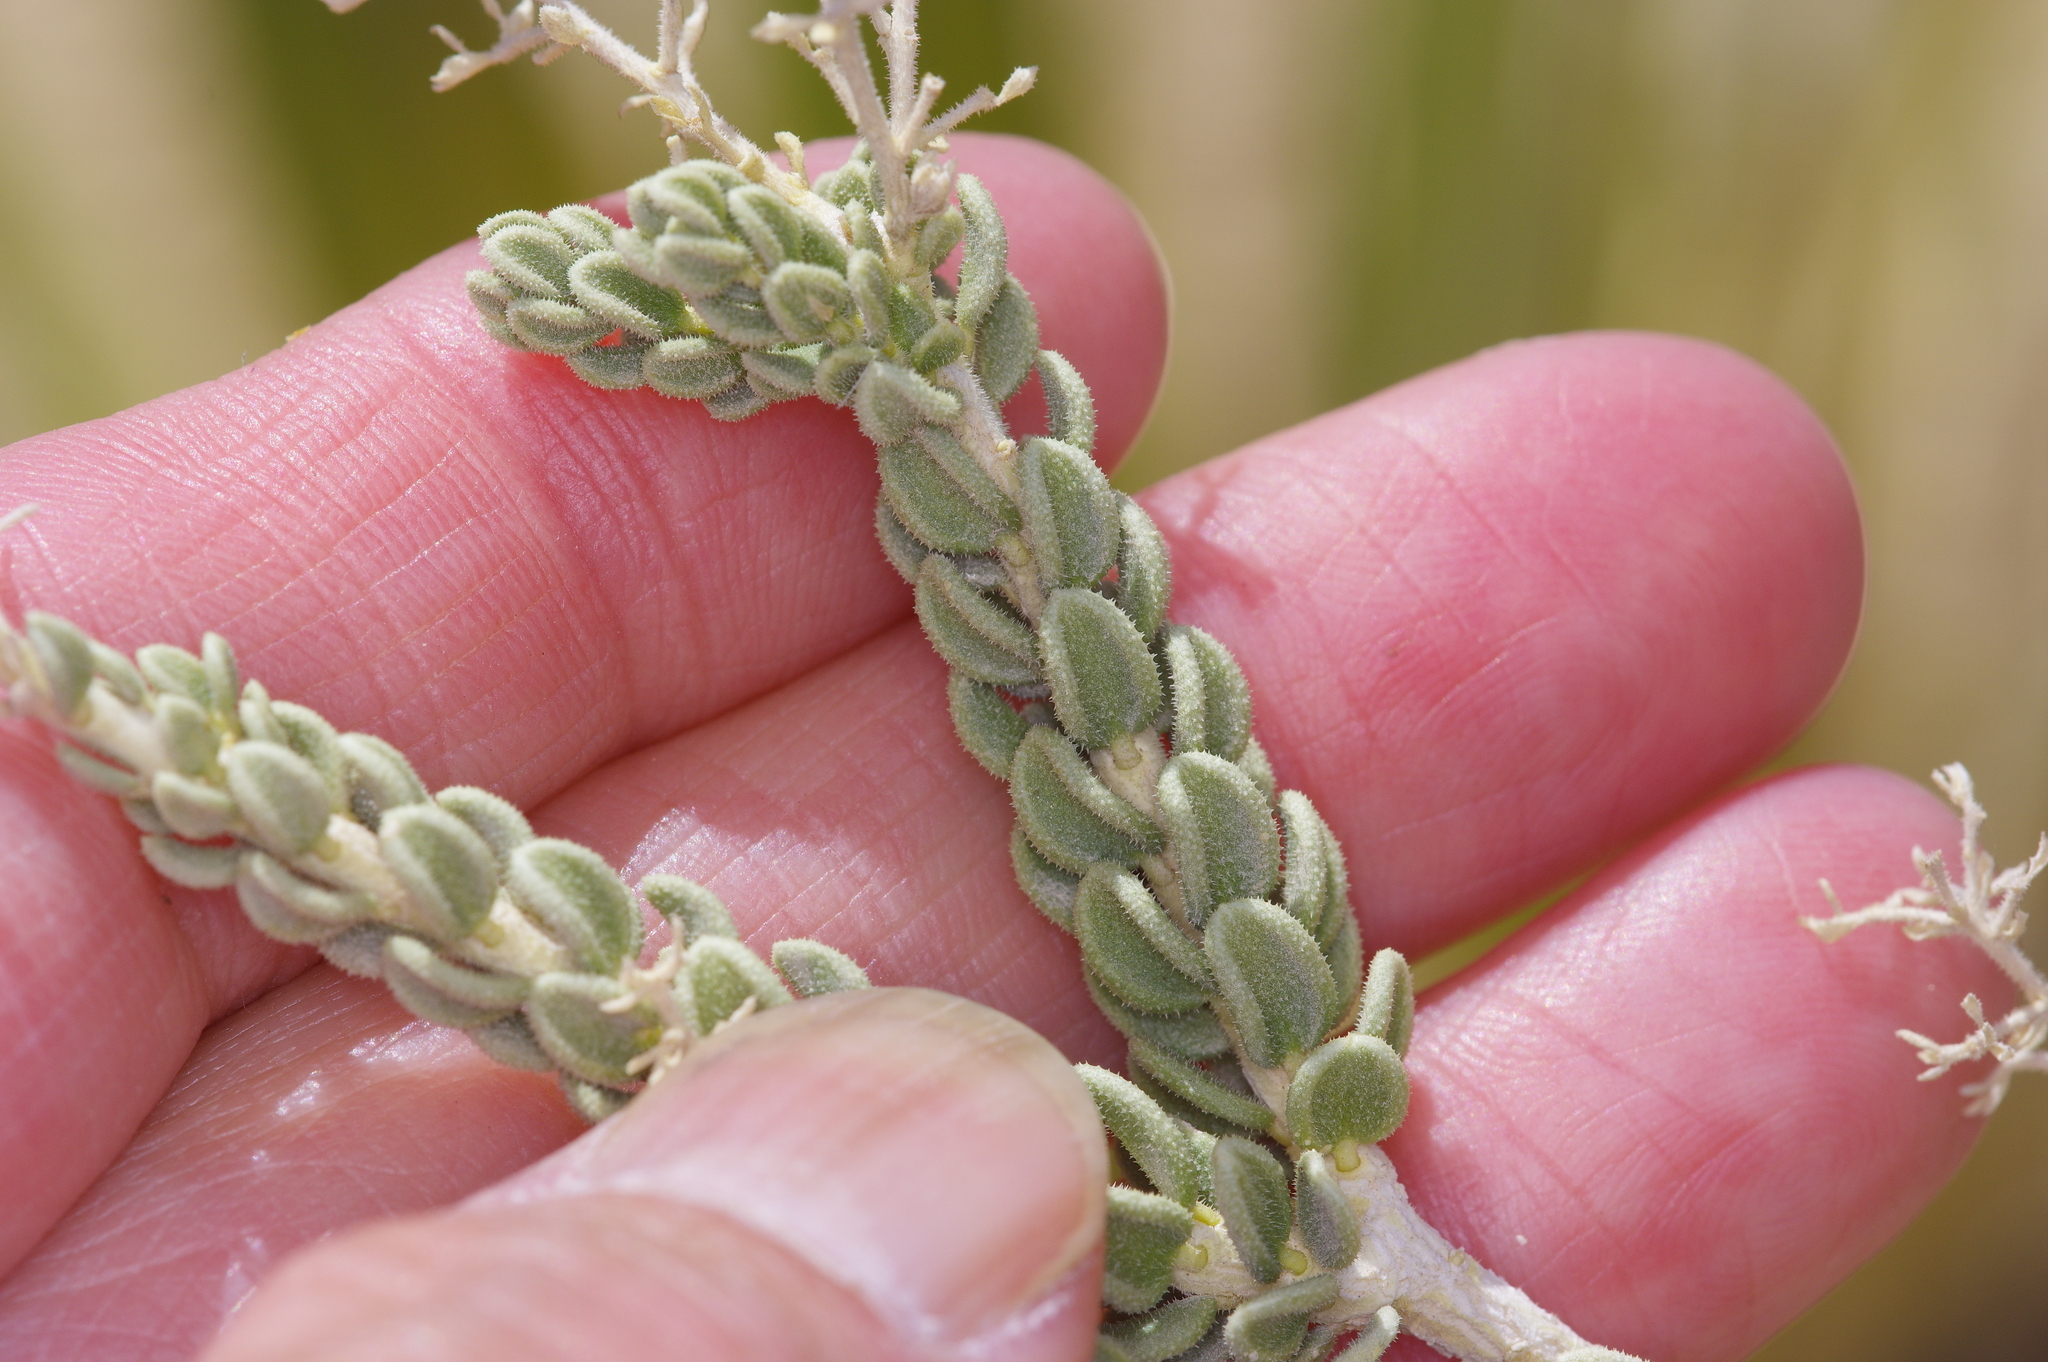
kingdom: Plantae
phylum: Tracheophyta
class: Magnoliopsida
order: Celastrales
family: Celastraceae
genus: Mortonia
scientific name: Mortonia scabrella
